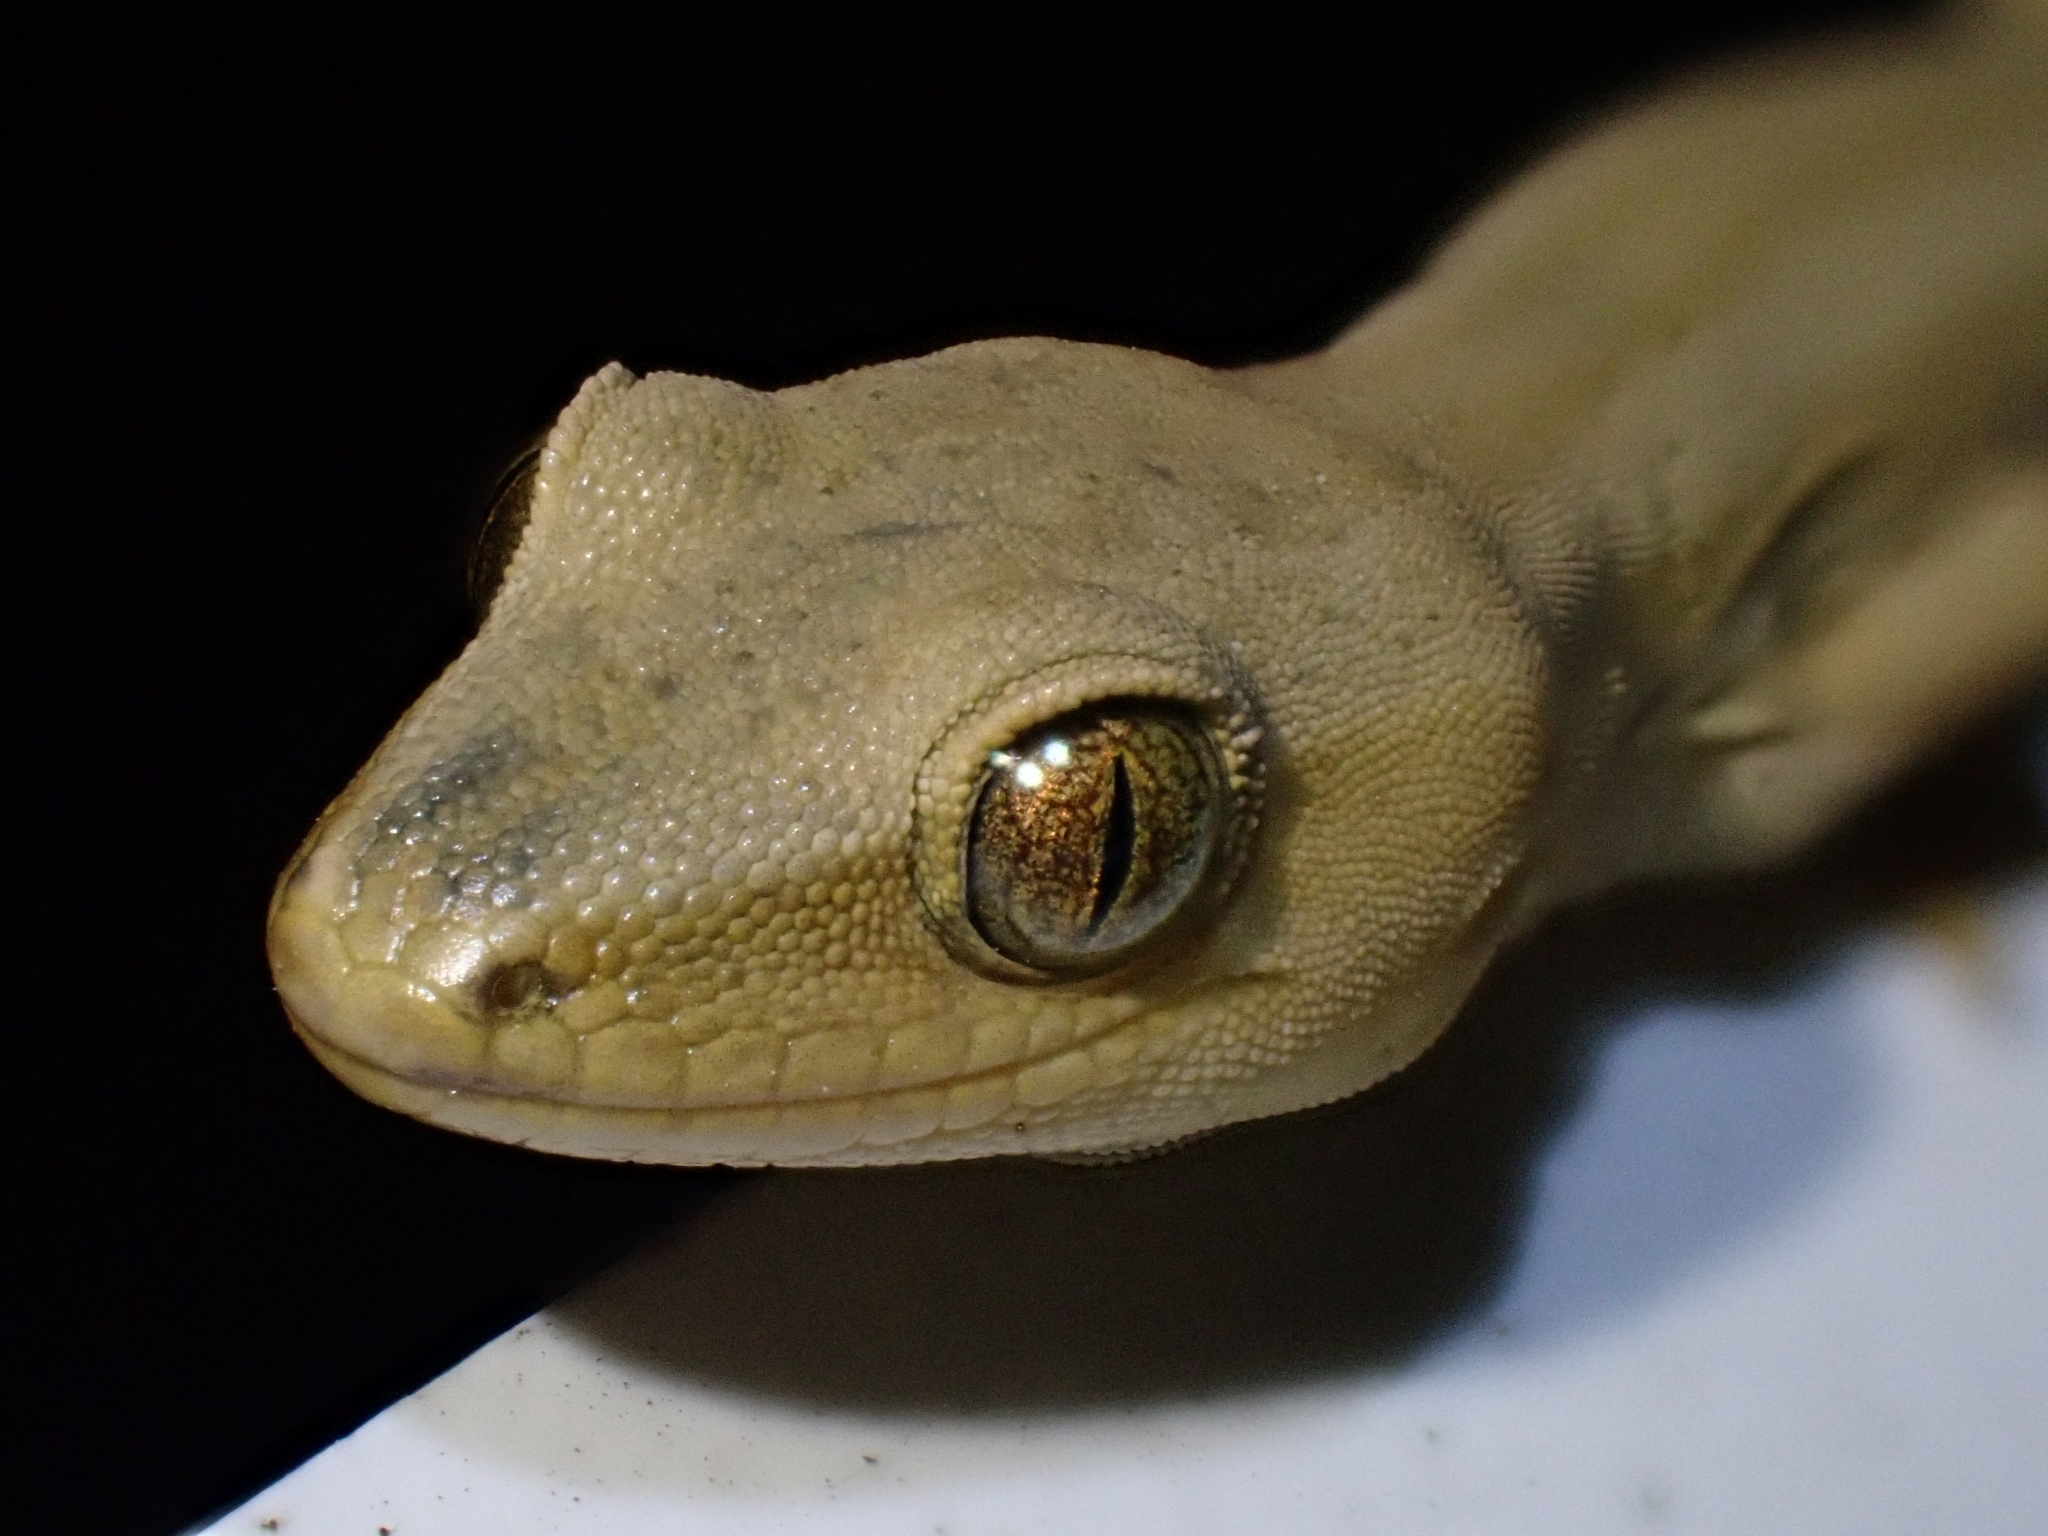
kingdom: Animalia
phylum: Chordata
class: Squamata
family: Diplodactylidae
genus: Woodworthia
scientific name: Woodworthia chrysosiretica
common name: Gold-striped gecko
